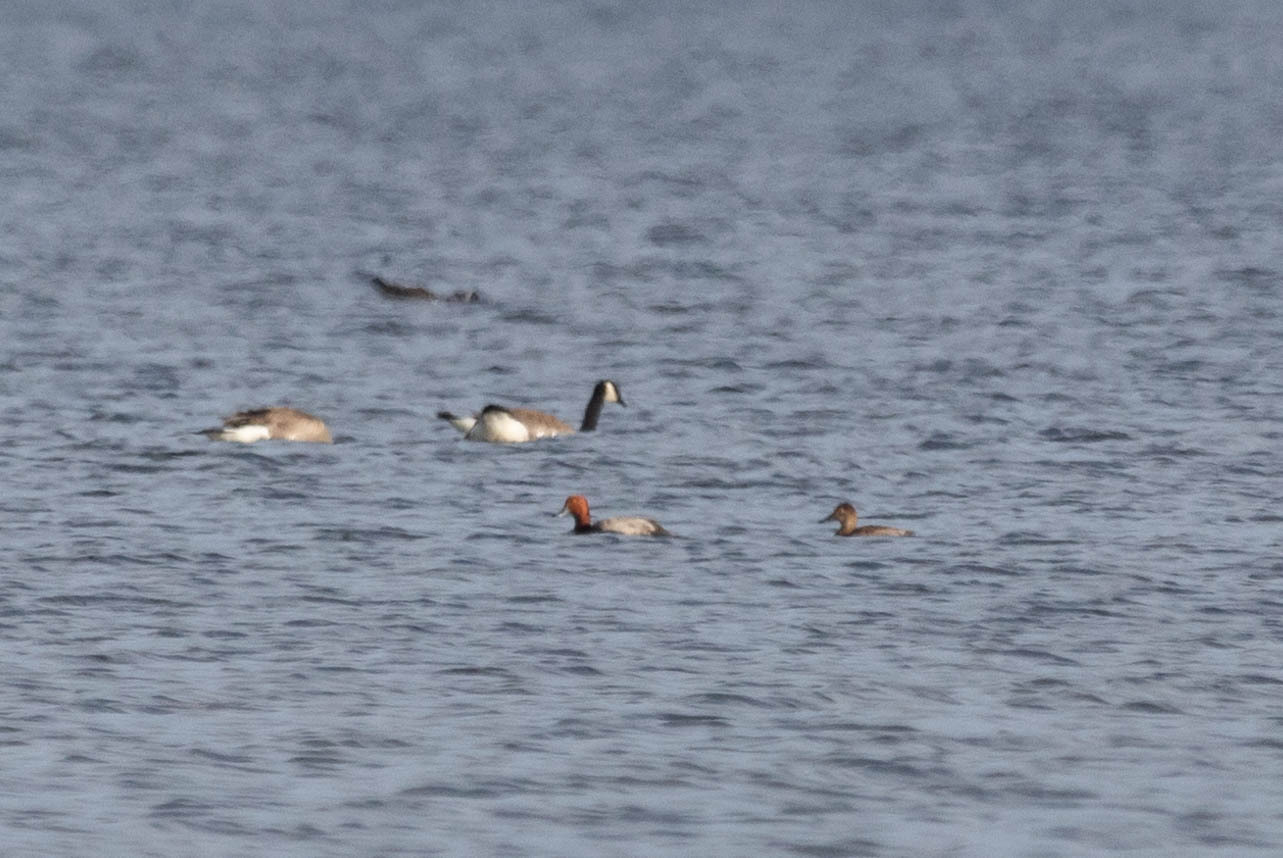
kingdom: Animalia
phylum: Chordata
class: Aves
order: Anseriformes
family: Anatidae
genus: Aythya
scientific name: Aythya americana
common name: Redhead
